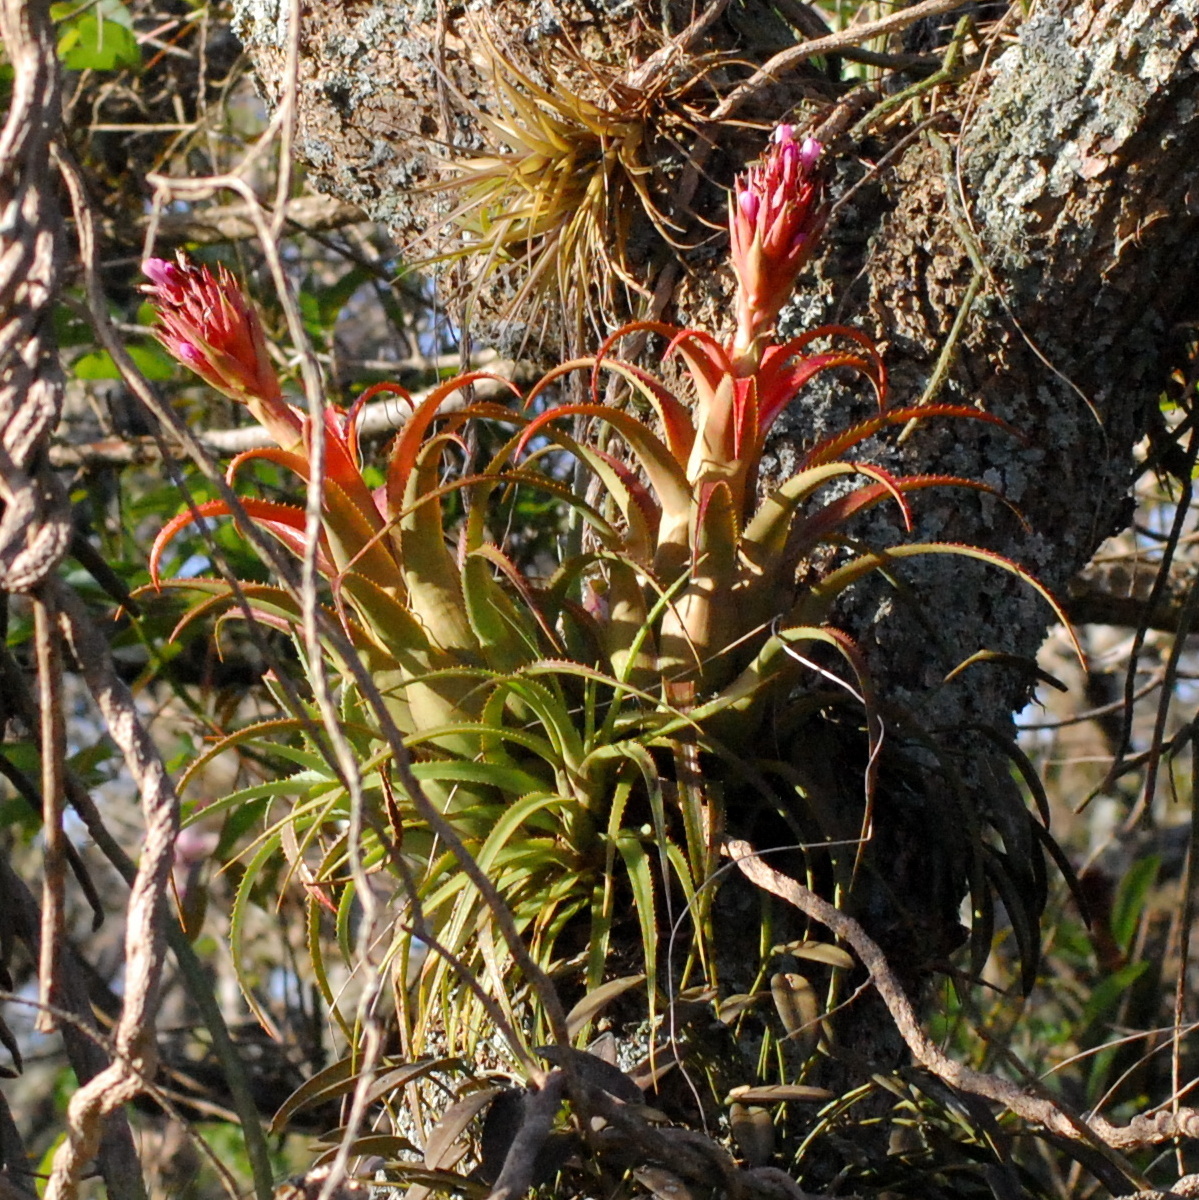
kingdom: Plantae
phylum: Tracheophyta
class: Liliopsida
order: Poales
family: Bromeliaceae
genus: Aechmea
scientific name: Aechmea recurvata
